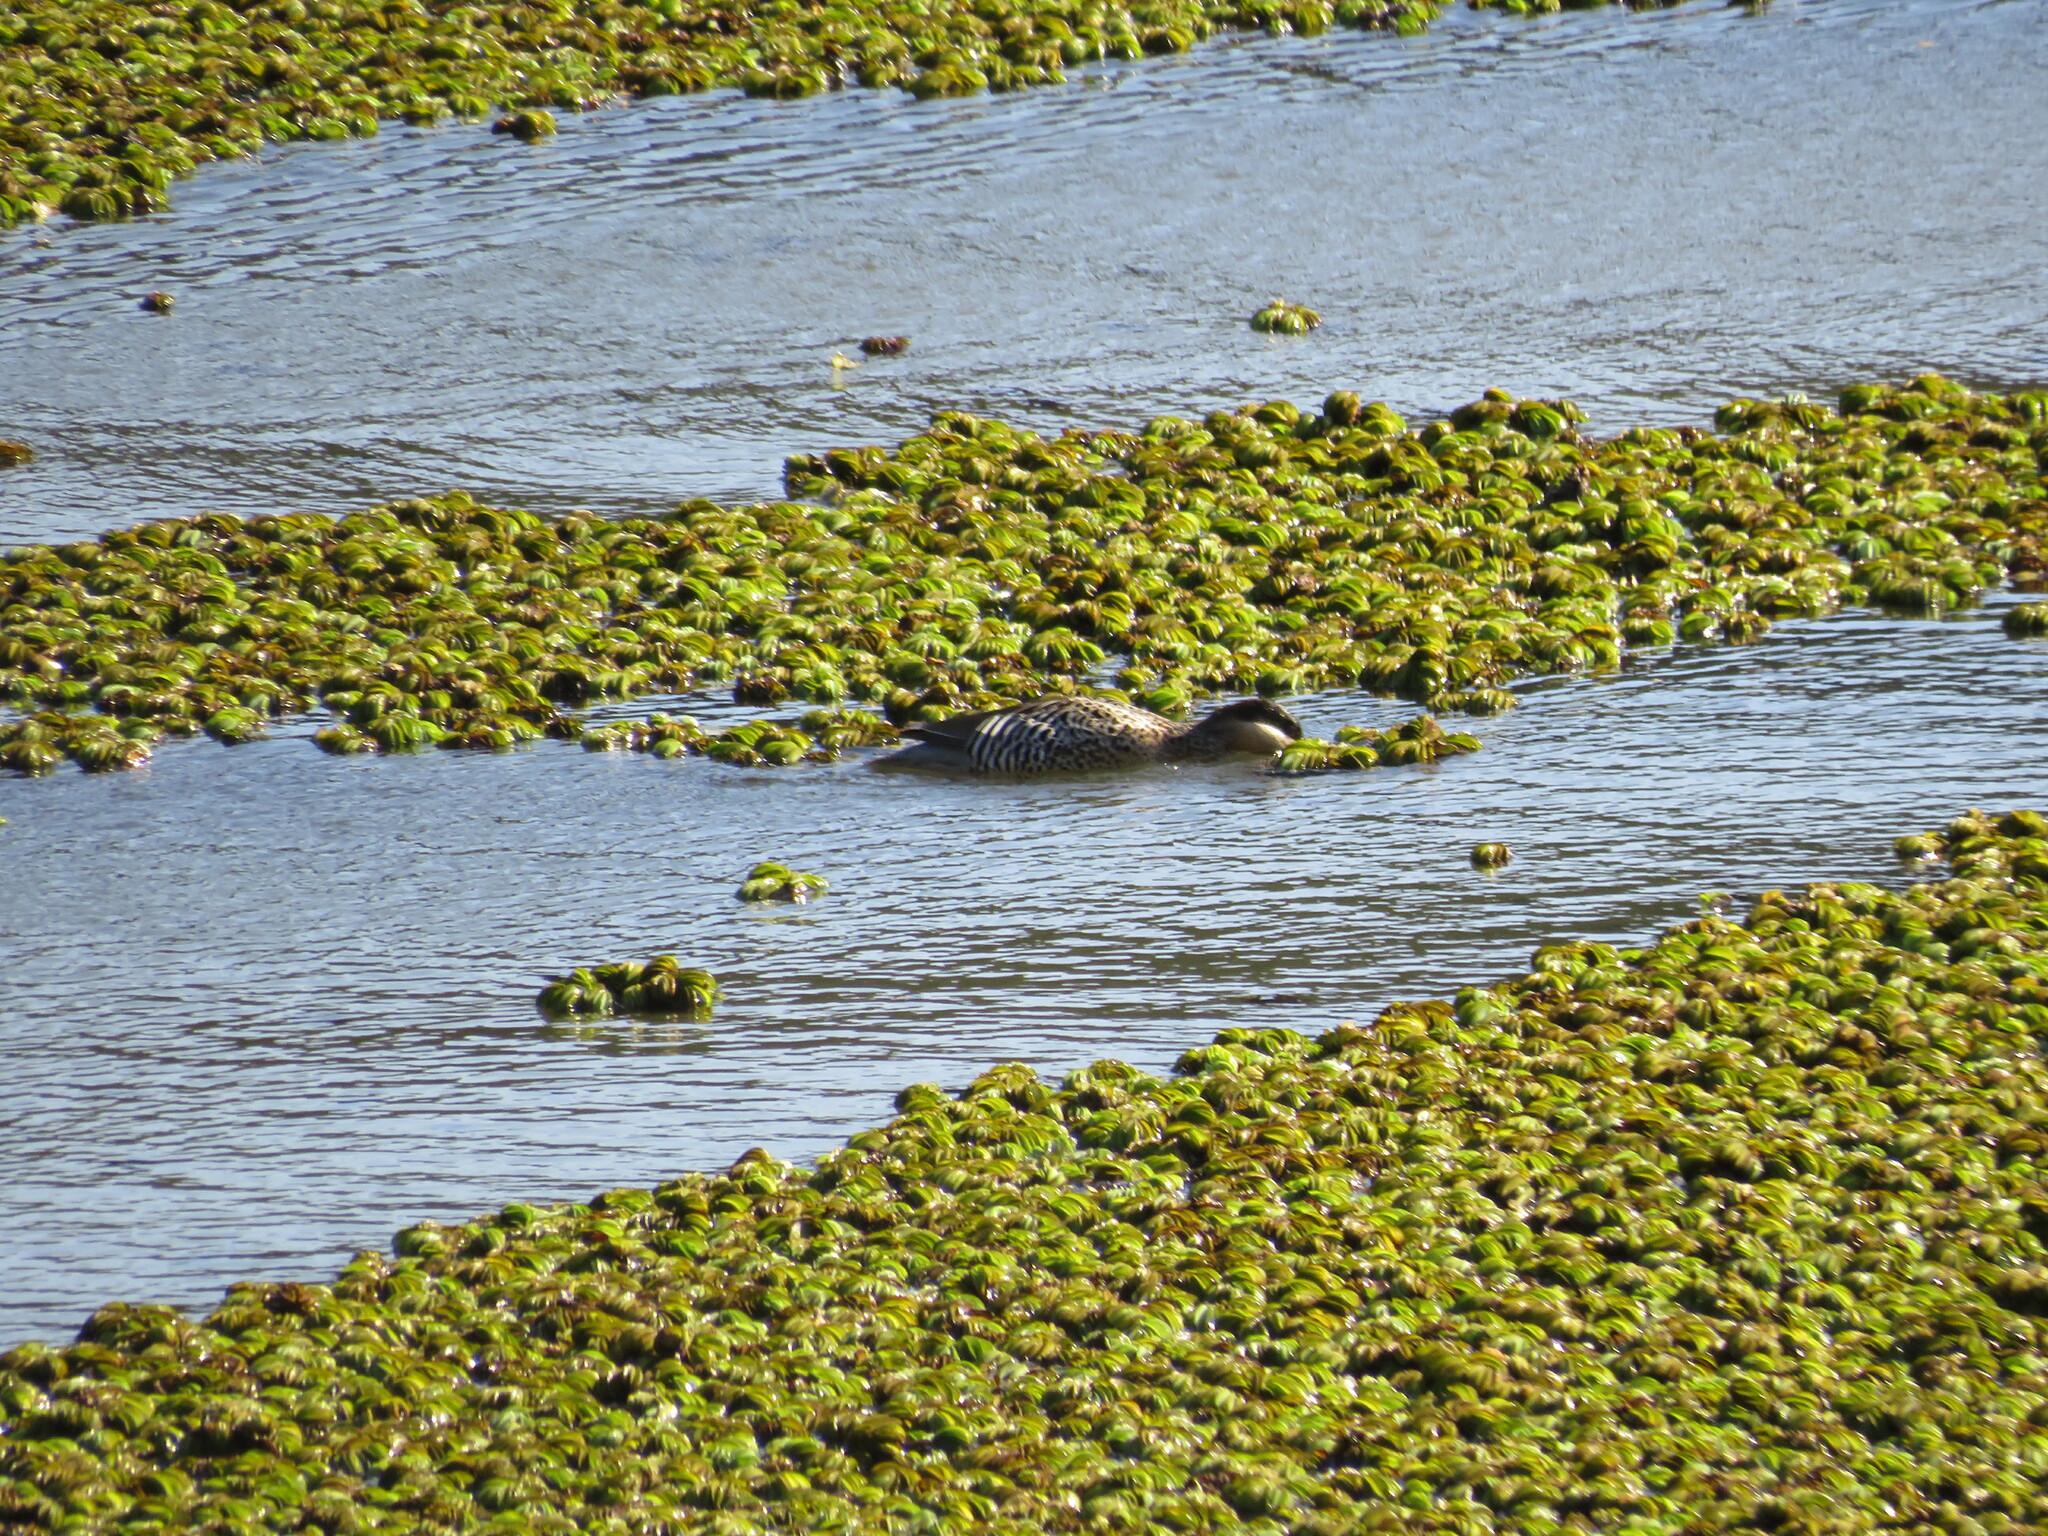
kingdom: Animalia
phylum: Chordata
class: Aves
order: Anseriformes
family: Anatidae
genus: Spatula
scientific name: Spatula versicolor
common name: Silver teal
